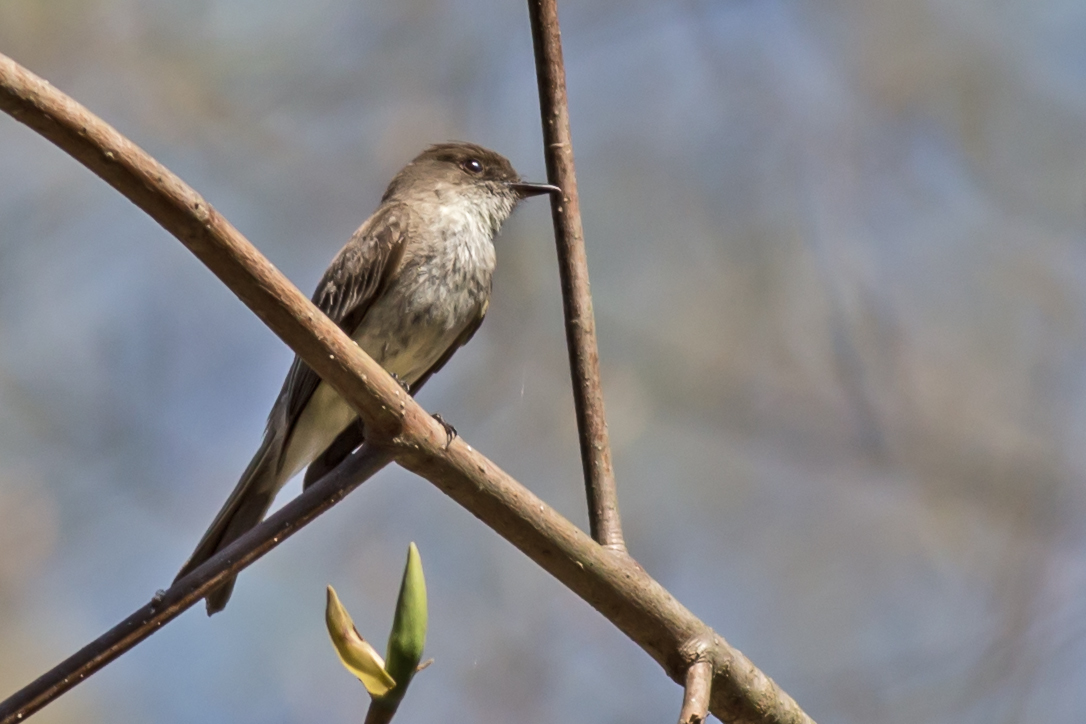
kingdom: Animalia
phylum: Chordata
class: Aves
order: Passeriformes
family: Tyrannidae
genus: Sayornis
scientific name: Sayornis phoebe
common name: Eastern phoebe
